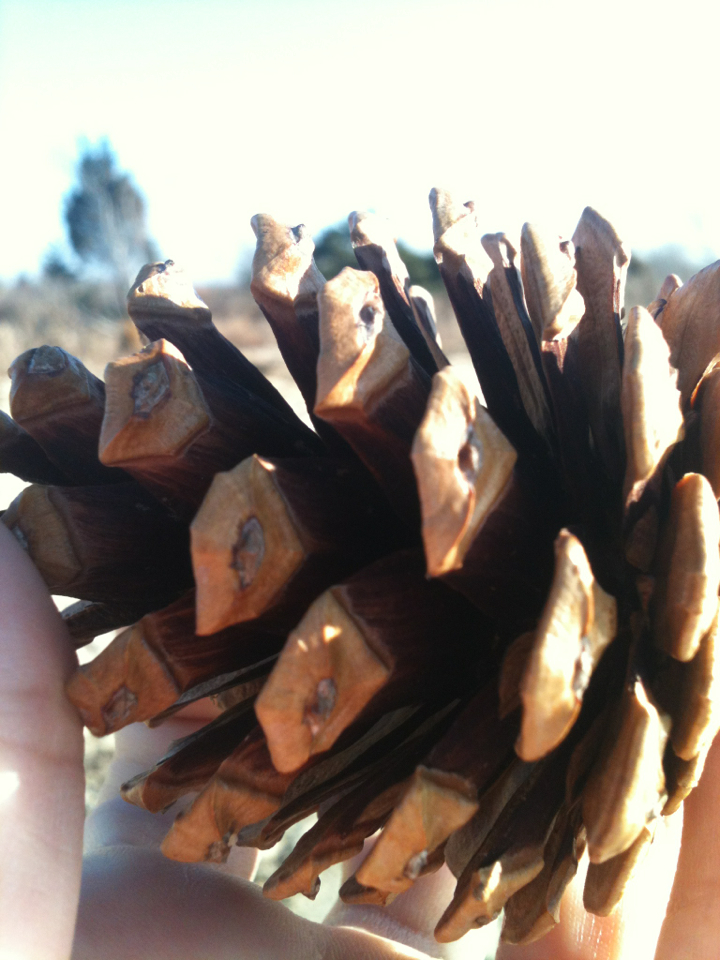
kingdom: Plantae
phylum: Tracheophyta
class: Pinopsida
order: Pinales
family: Pinaceae
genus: Pinus
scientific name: Pinus thunbergii
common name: Japanese black pine
